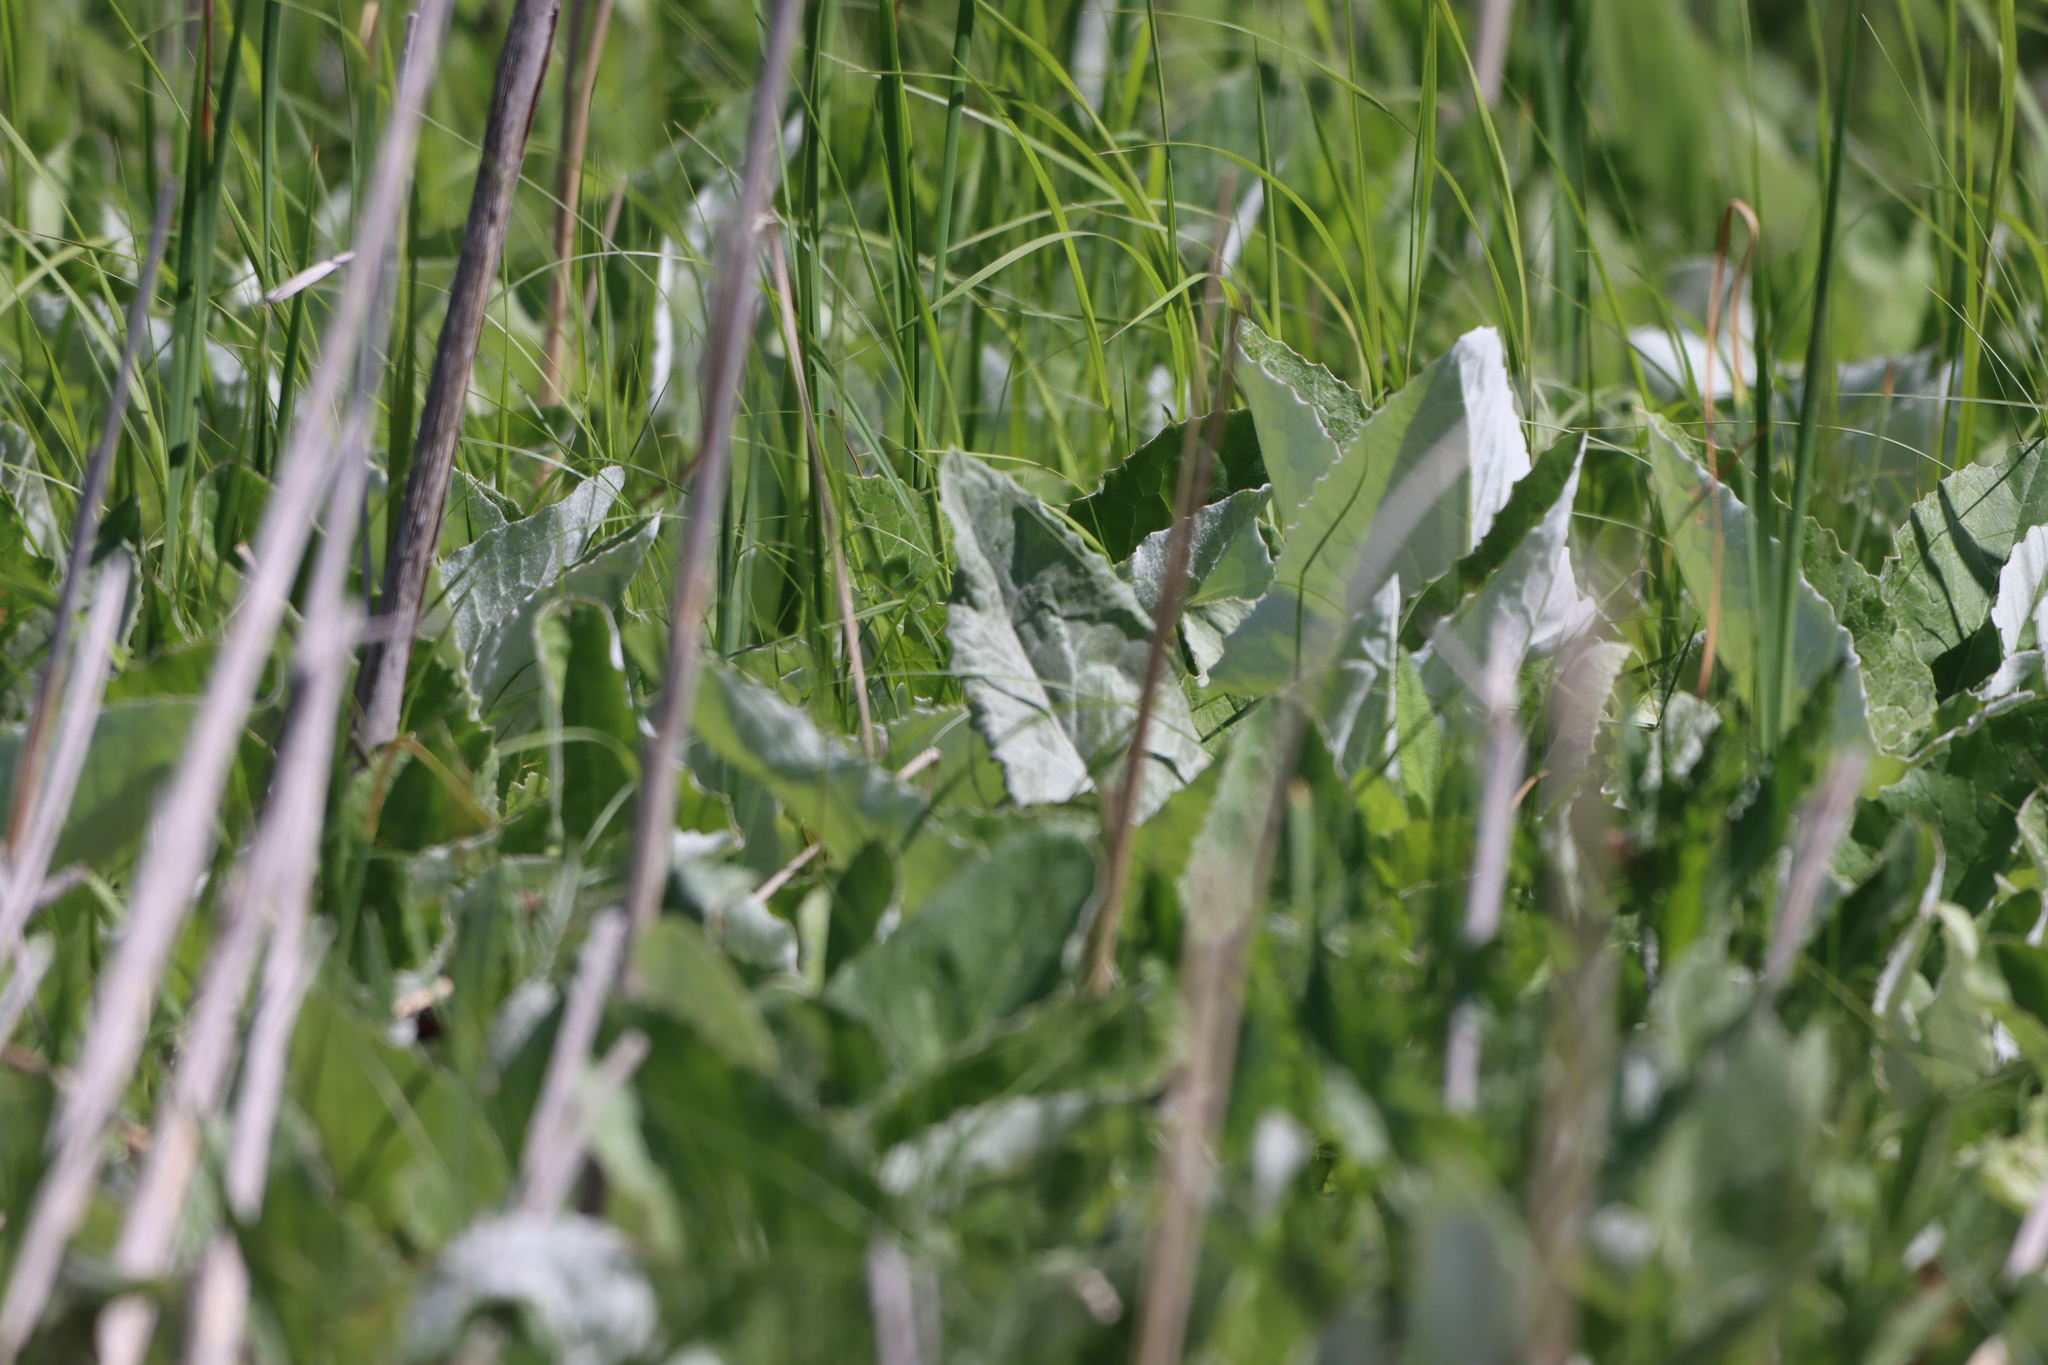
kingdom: Plantae
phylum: Tracheophyta
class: Magnoliopsida
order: Asterales
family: Asteraceae
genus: Petasites
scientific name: Petasites frigidus
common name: Arctic butterbur
